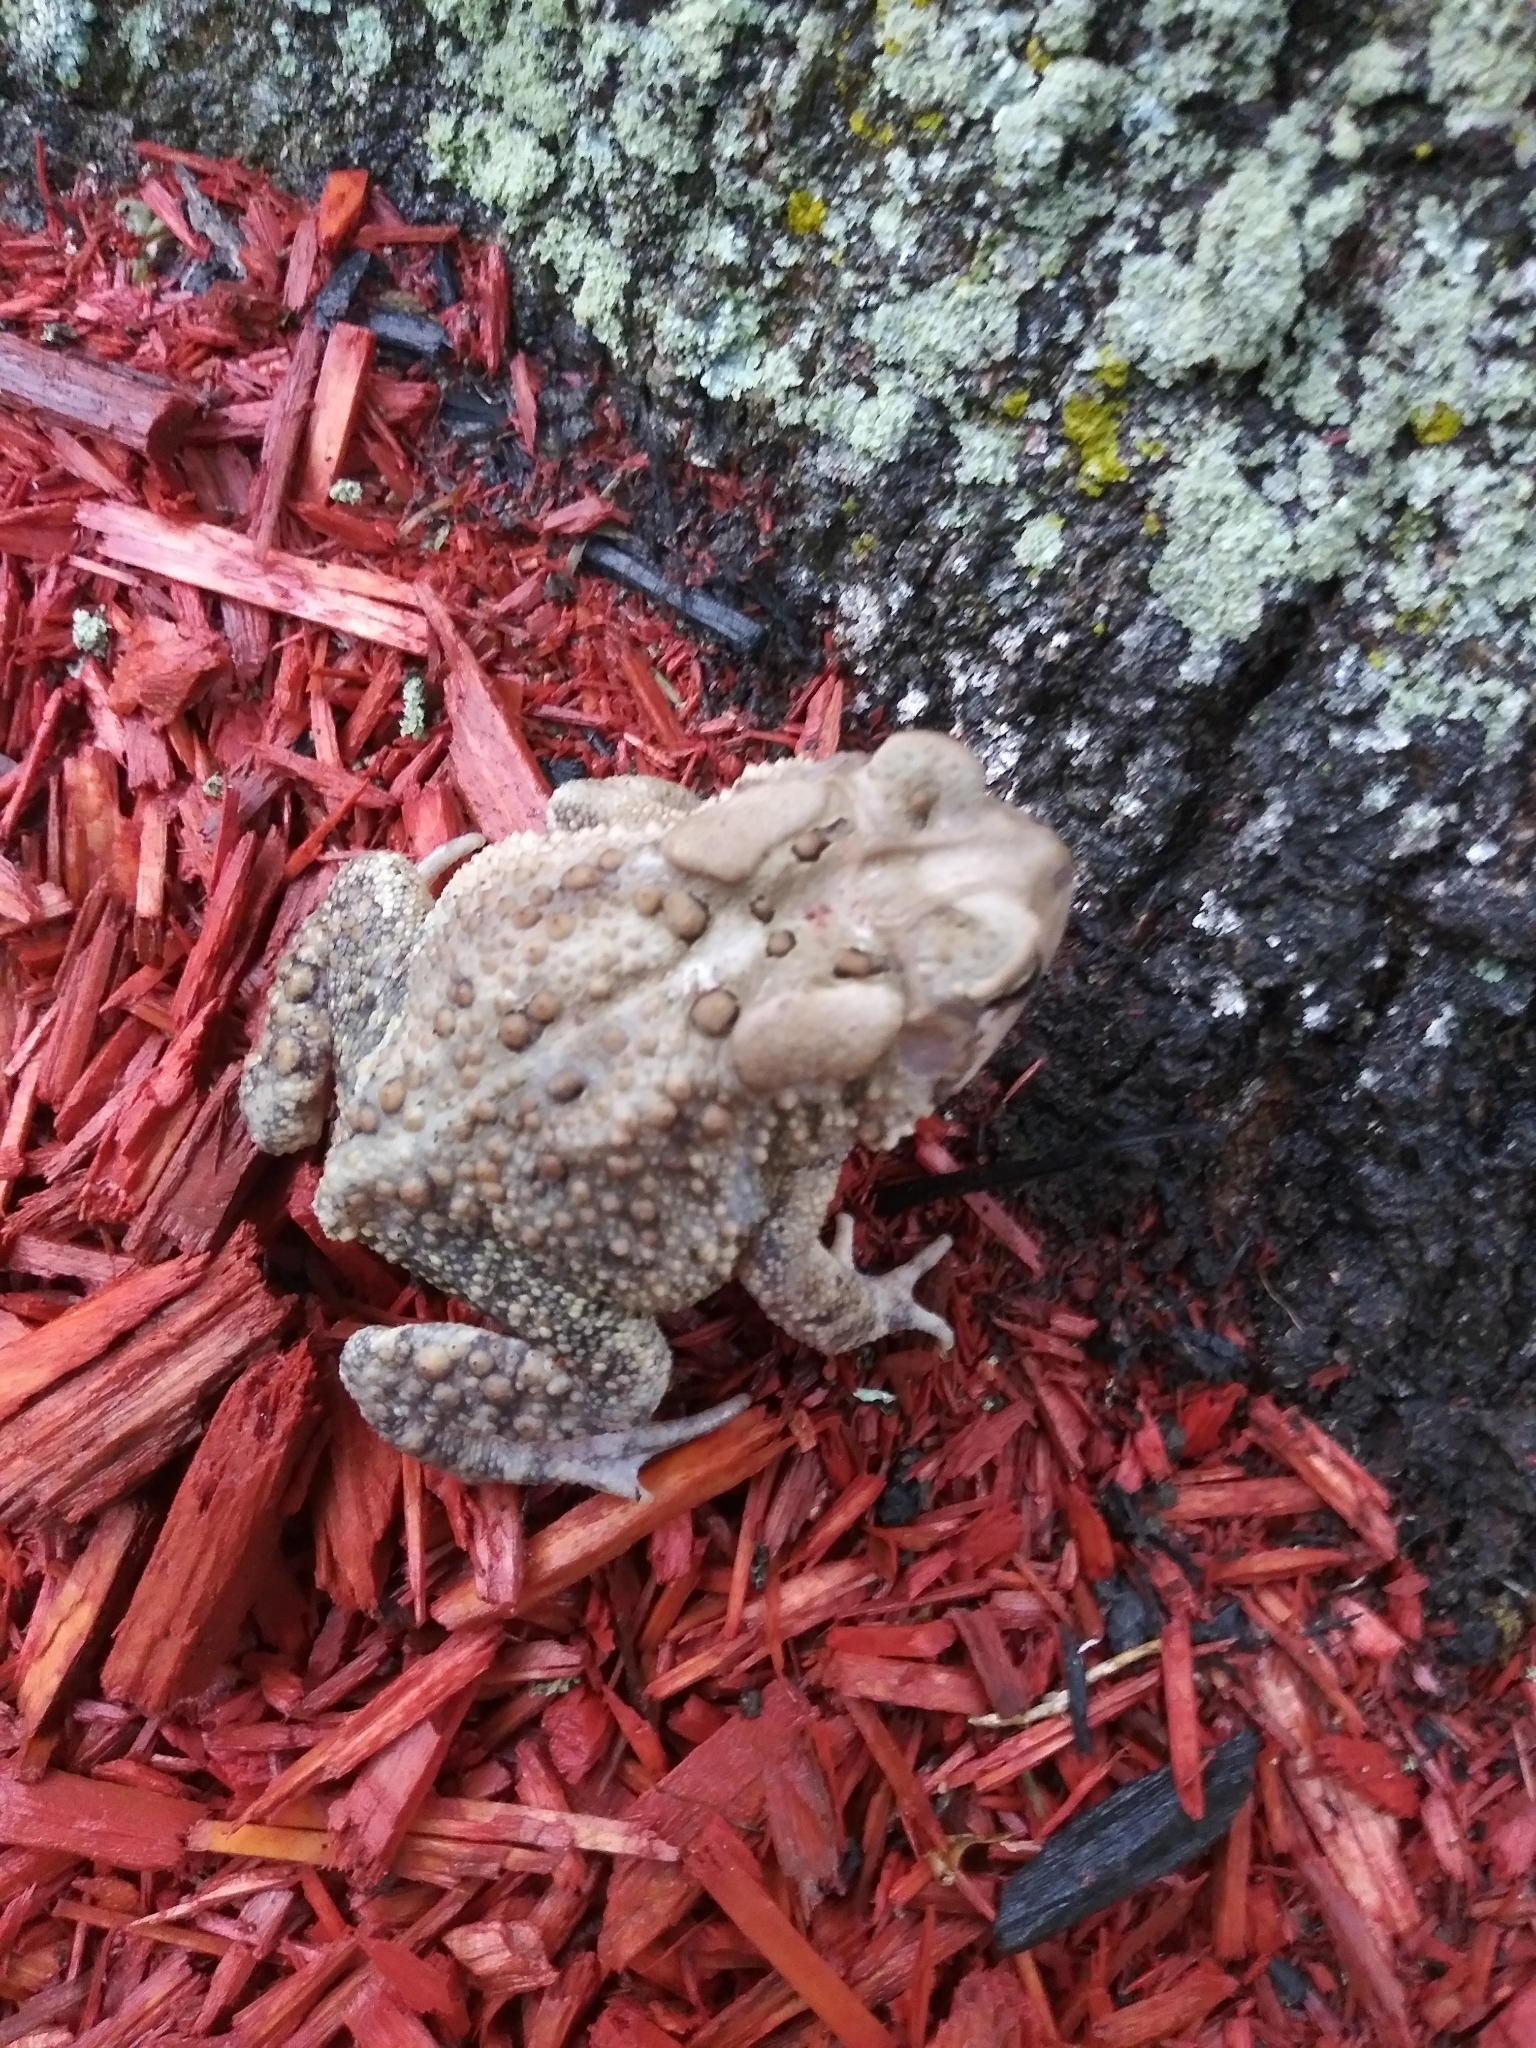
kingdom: Animalia
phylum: Chordata
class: Amphibia
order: Anura
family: Bufonidae
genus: Anaxyrus
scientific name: Anaxyrus americanus
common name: American toad
